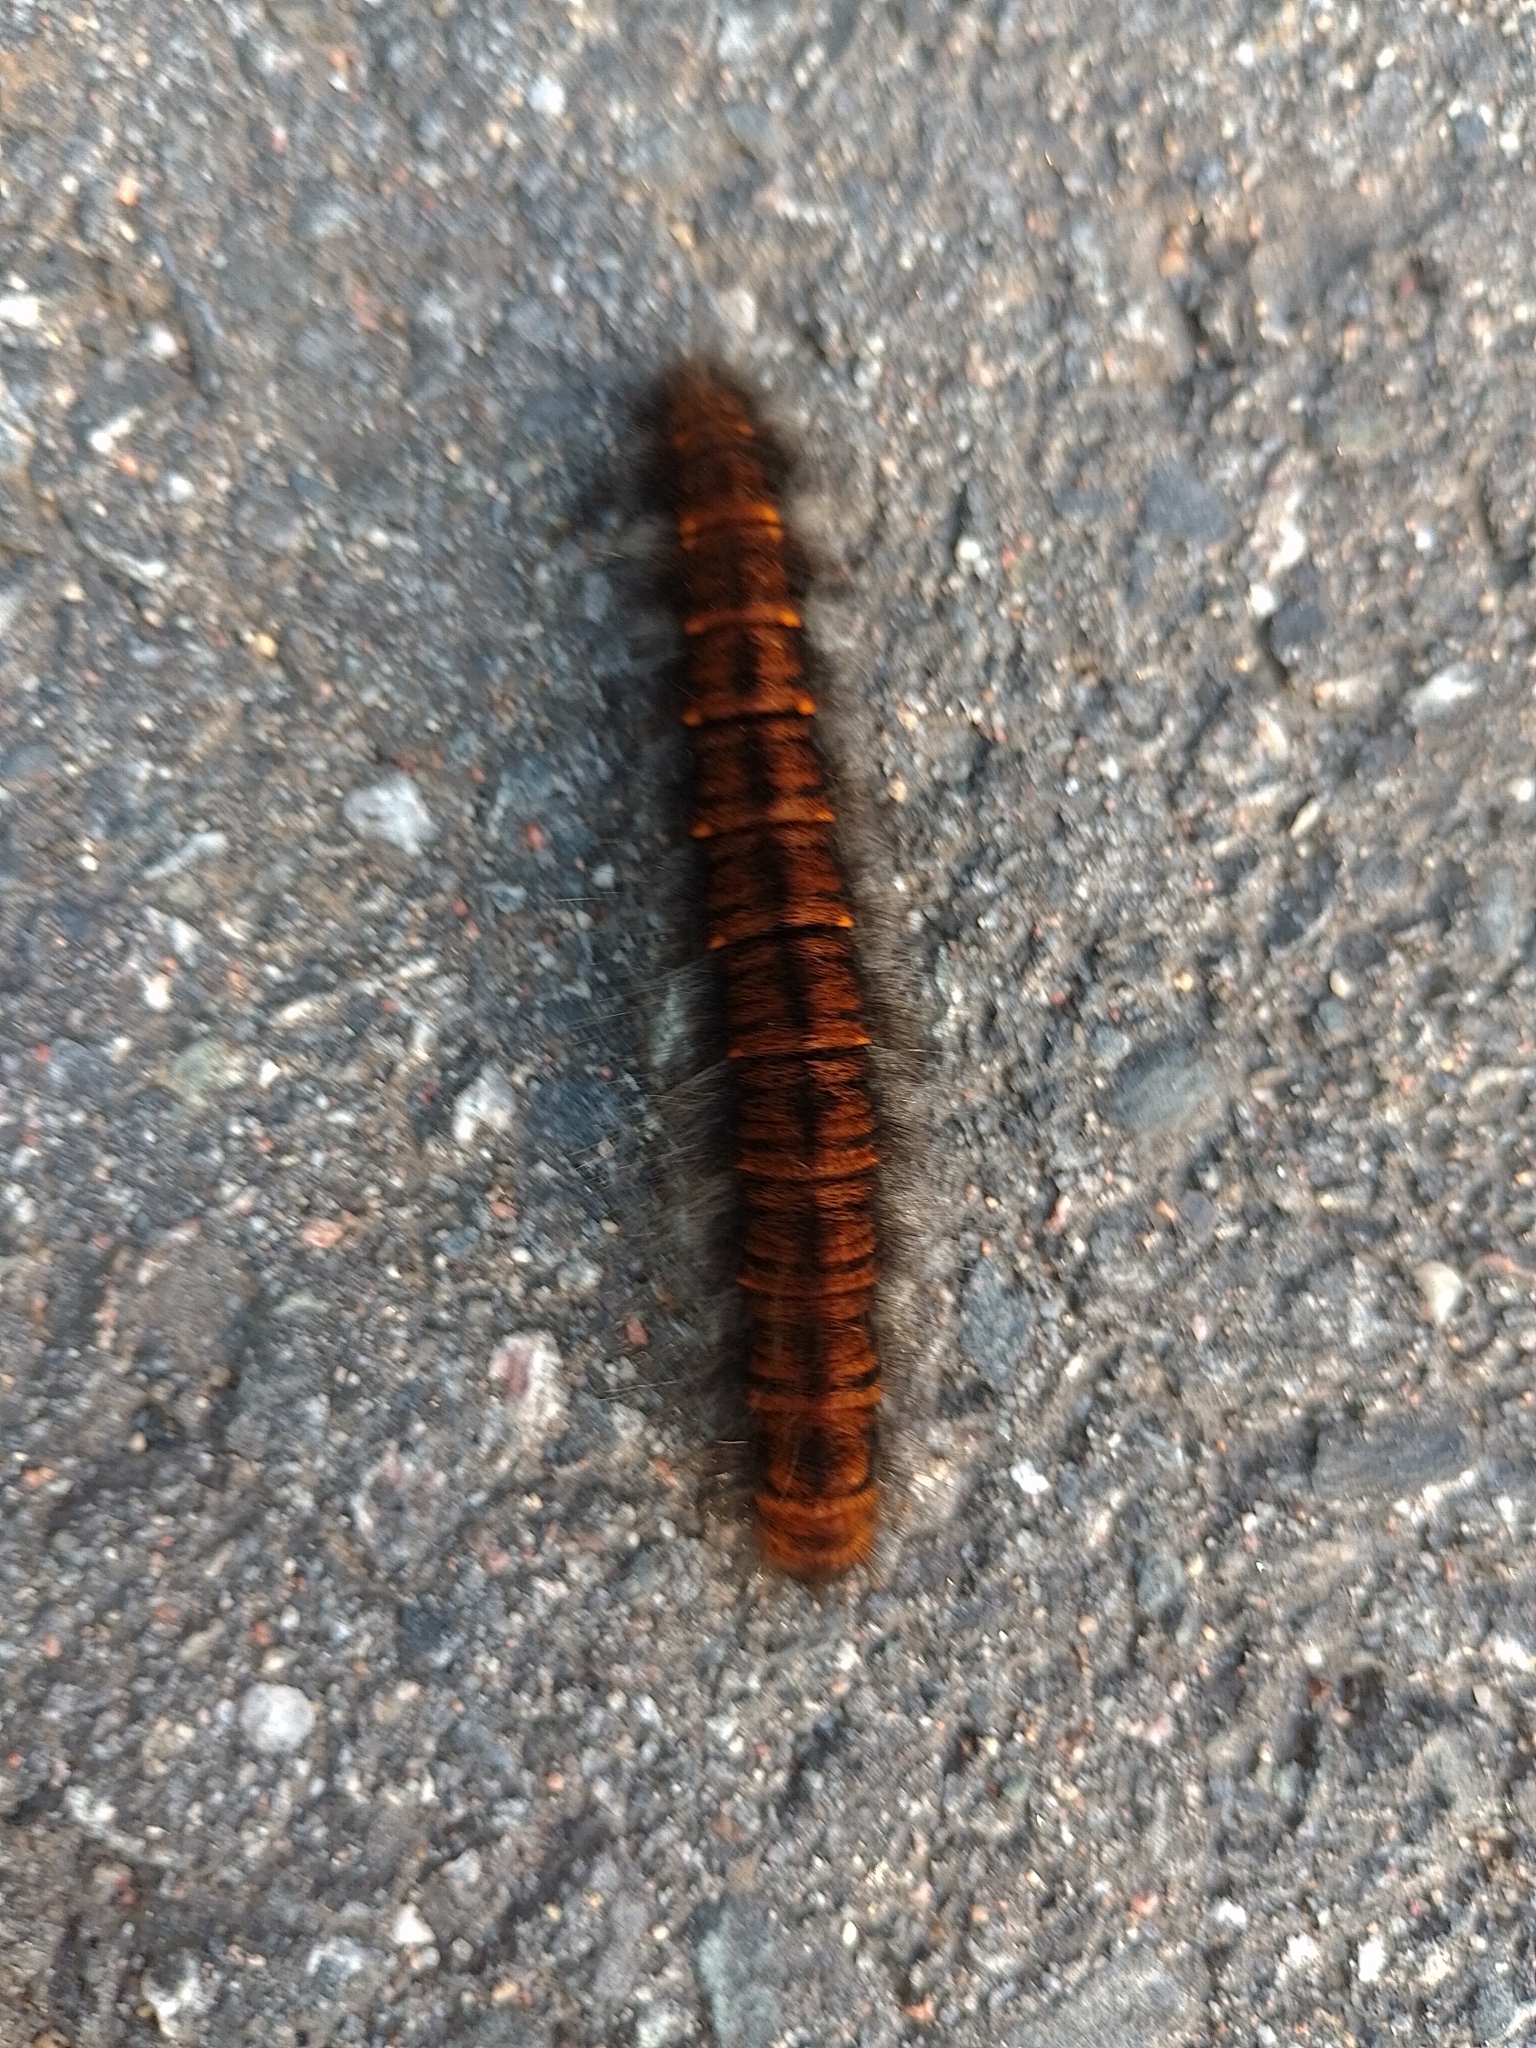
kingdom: Animalia
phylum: Arthropoda
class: Insecta
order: Lepidoptera
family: Lasiocampidae
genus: Macrothylacia
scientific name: Macrothylacia rubi
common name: Fox moth
